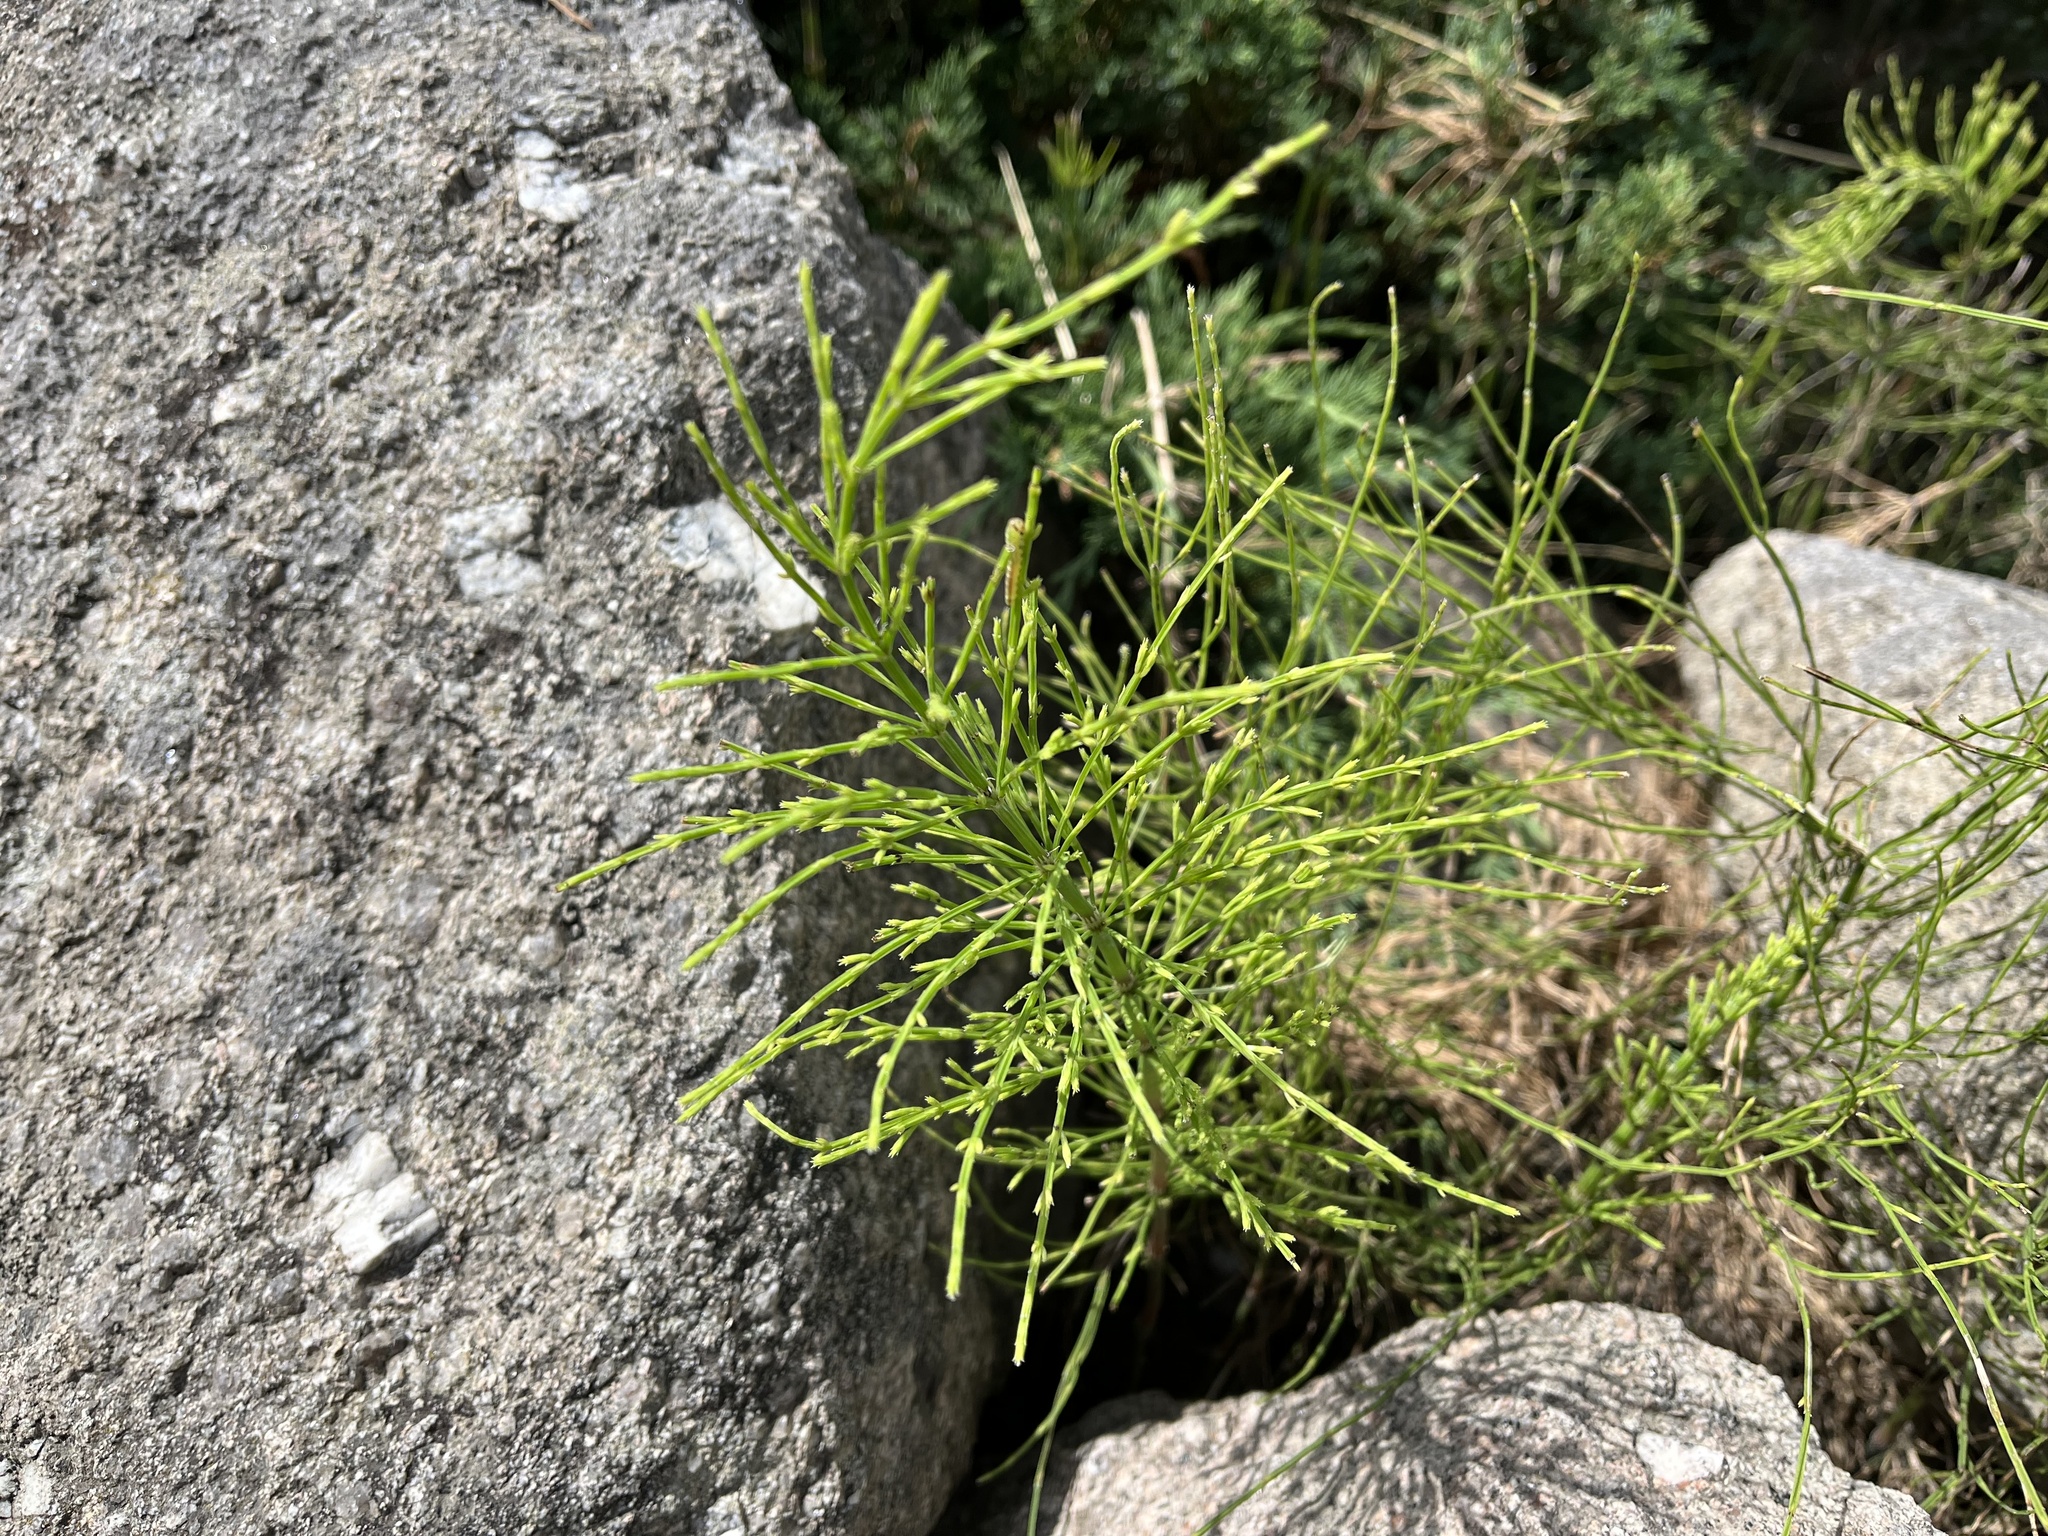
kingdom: Plantae
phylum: Tracheophyta
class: Polypodiopsida
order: Equisetales
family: Equisetaceae
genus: Equisetum
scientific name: Equisetum sylvaticum
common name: Wood horsetail
